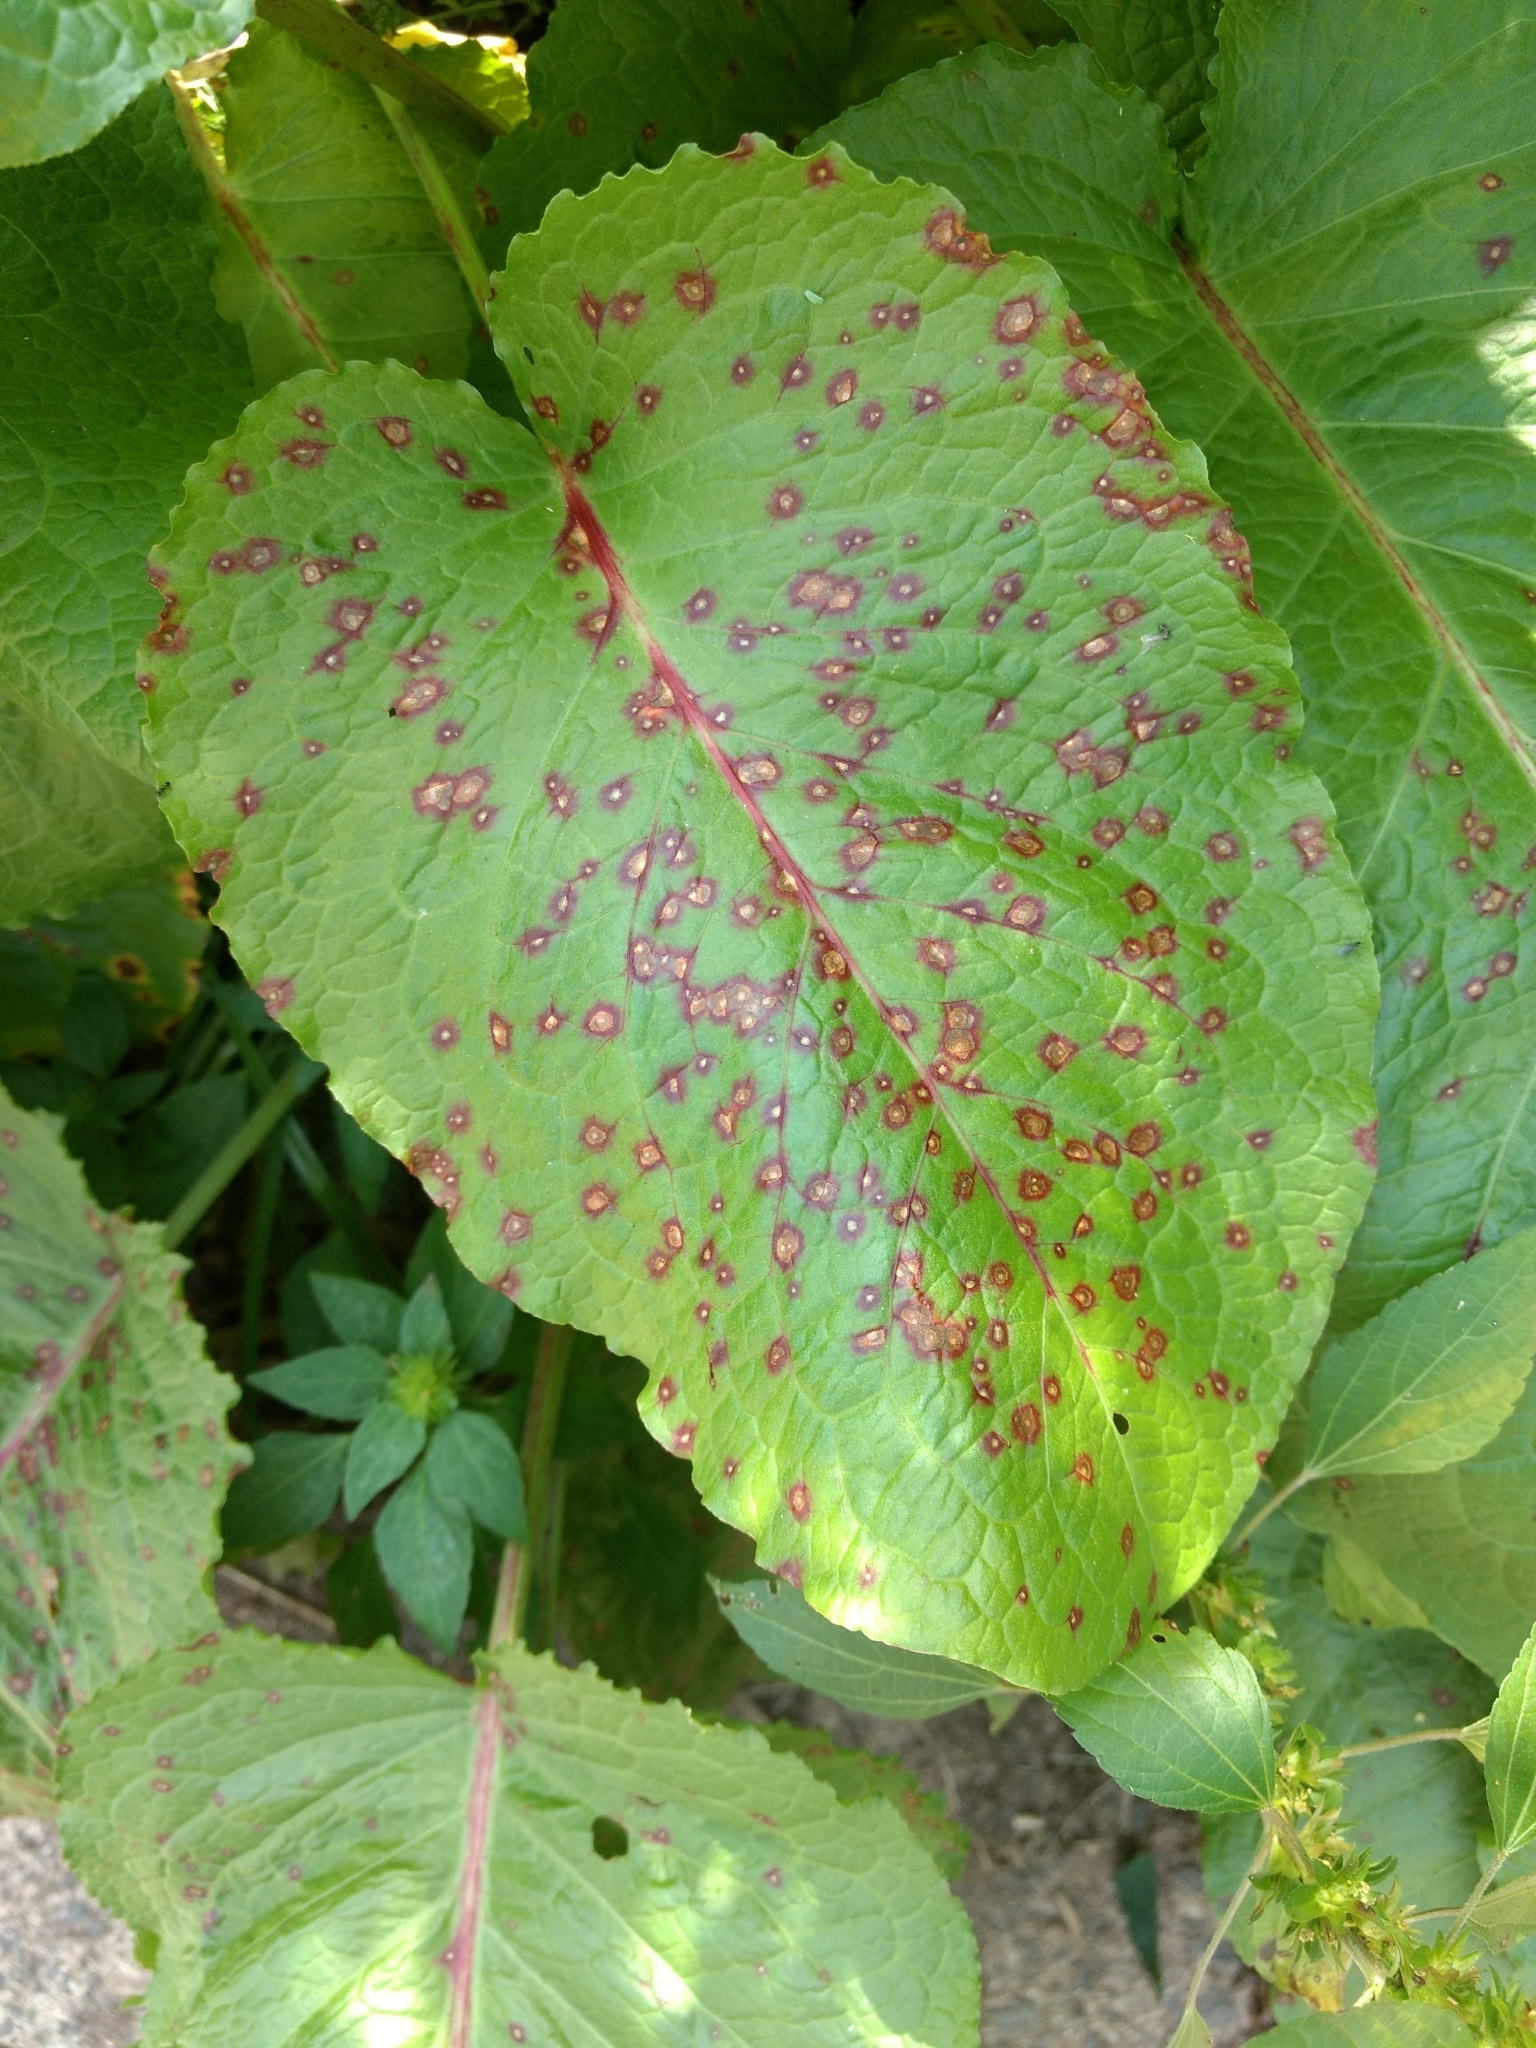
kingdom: Fungi
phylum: Ascomycota
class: Dothideomycetes
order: Mycosphaerellales
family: Mycosphaerellaceae
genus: Ramularia
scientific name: Ramularia rubella
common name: Red dock spot
